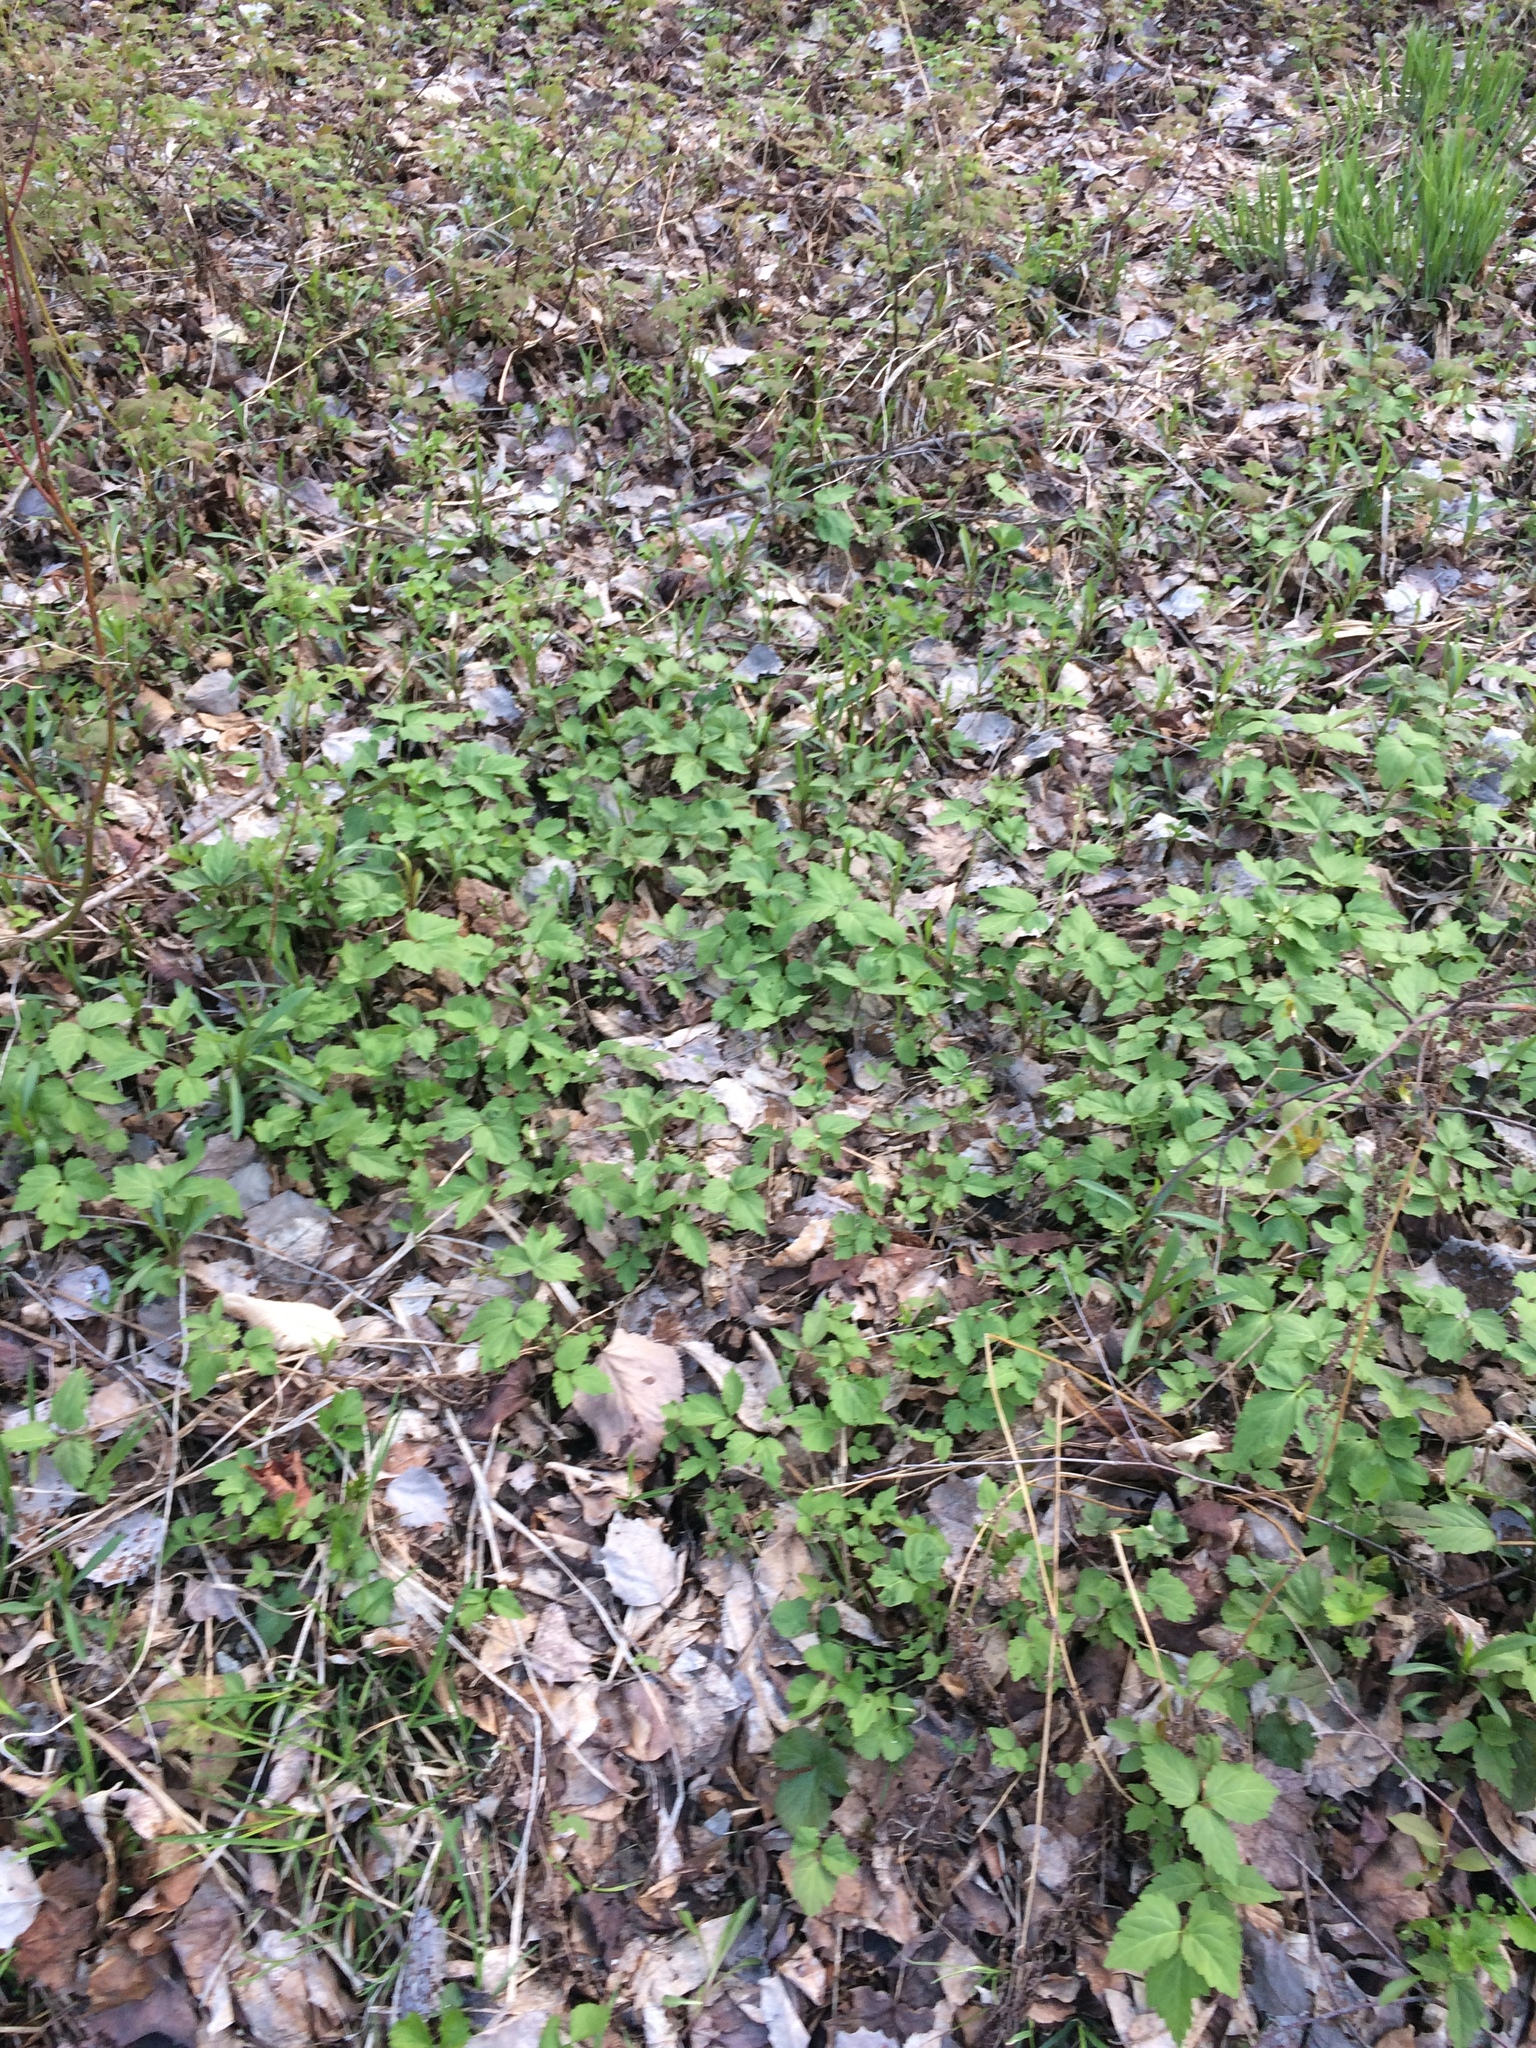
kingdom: Plantae
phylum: Tracheophyta
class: Magnoliopsida
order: Brassicales
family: Brassicaceae
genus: Cardamine
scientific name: Cardamine diphylla
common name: Broad-leaved toothwort
